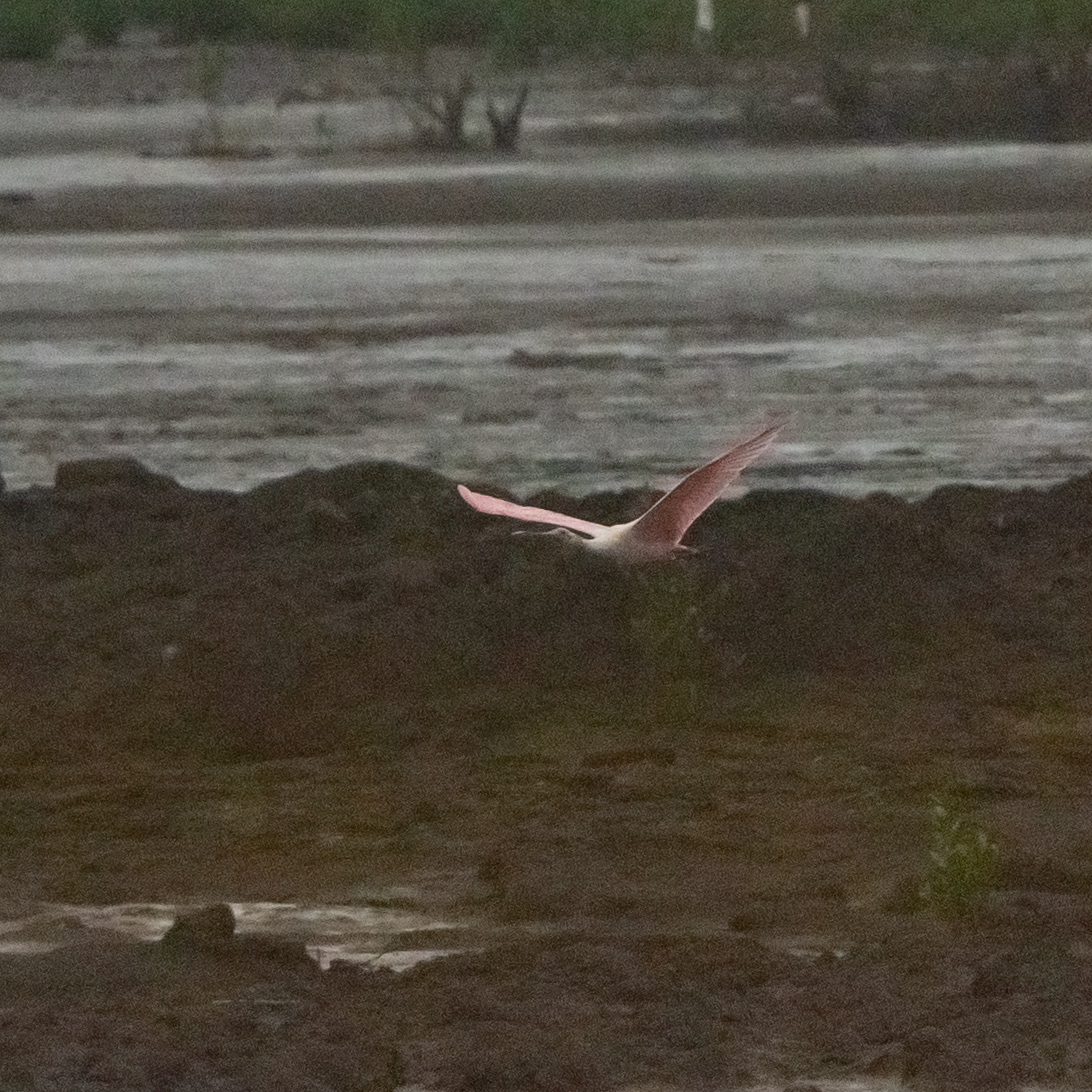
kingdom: Animalia
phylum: Chordata
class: Aves
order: Pelecaniformes
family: Threskiornithidae
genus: Platalea
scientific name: Platalea ajaja
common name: Roseate spoonbill
